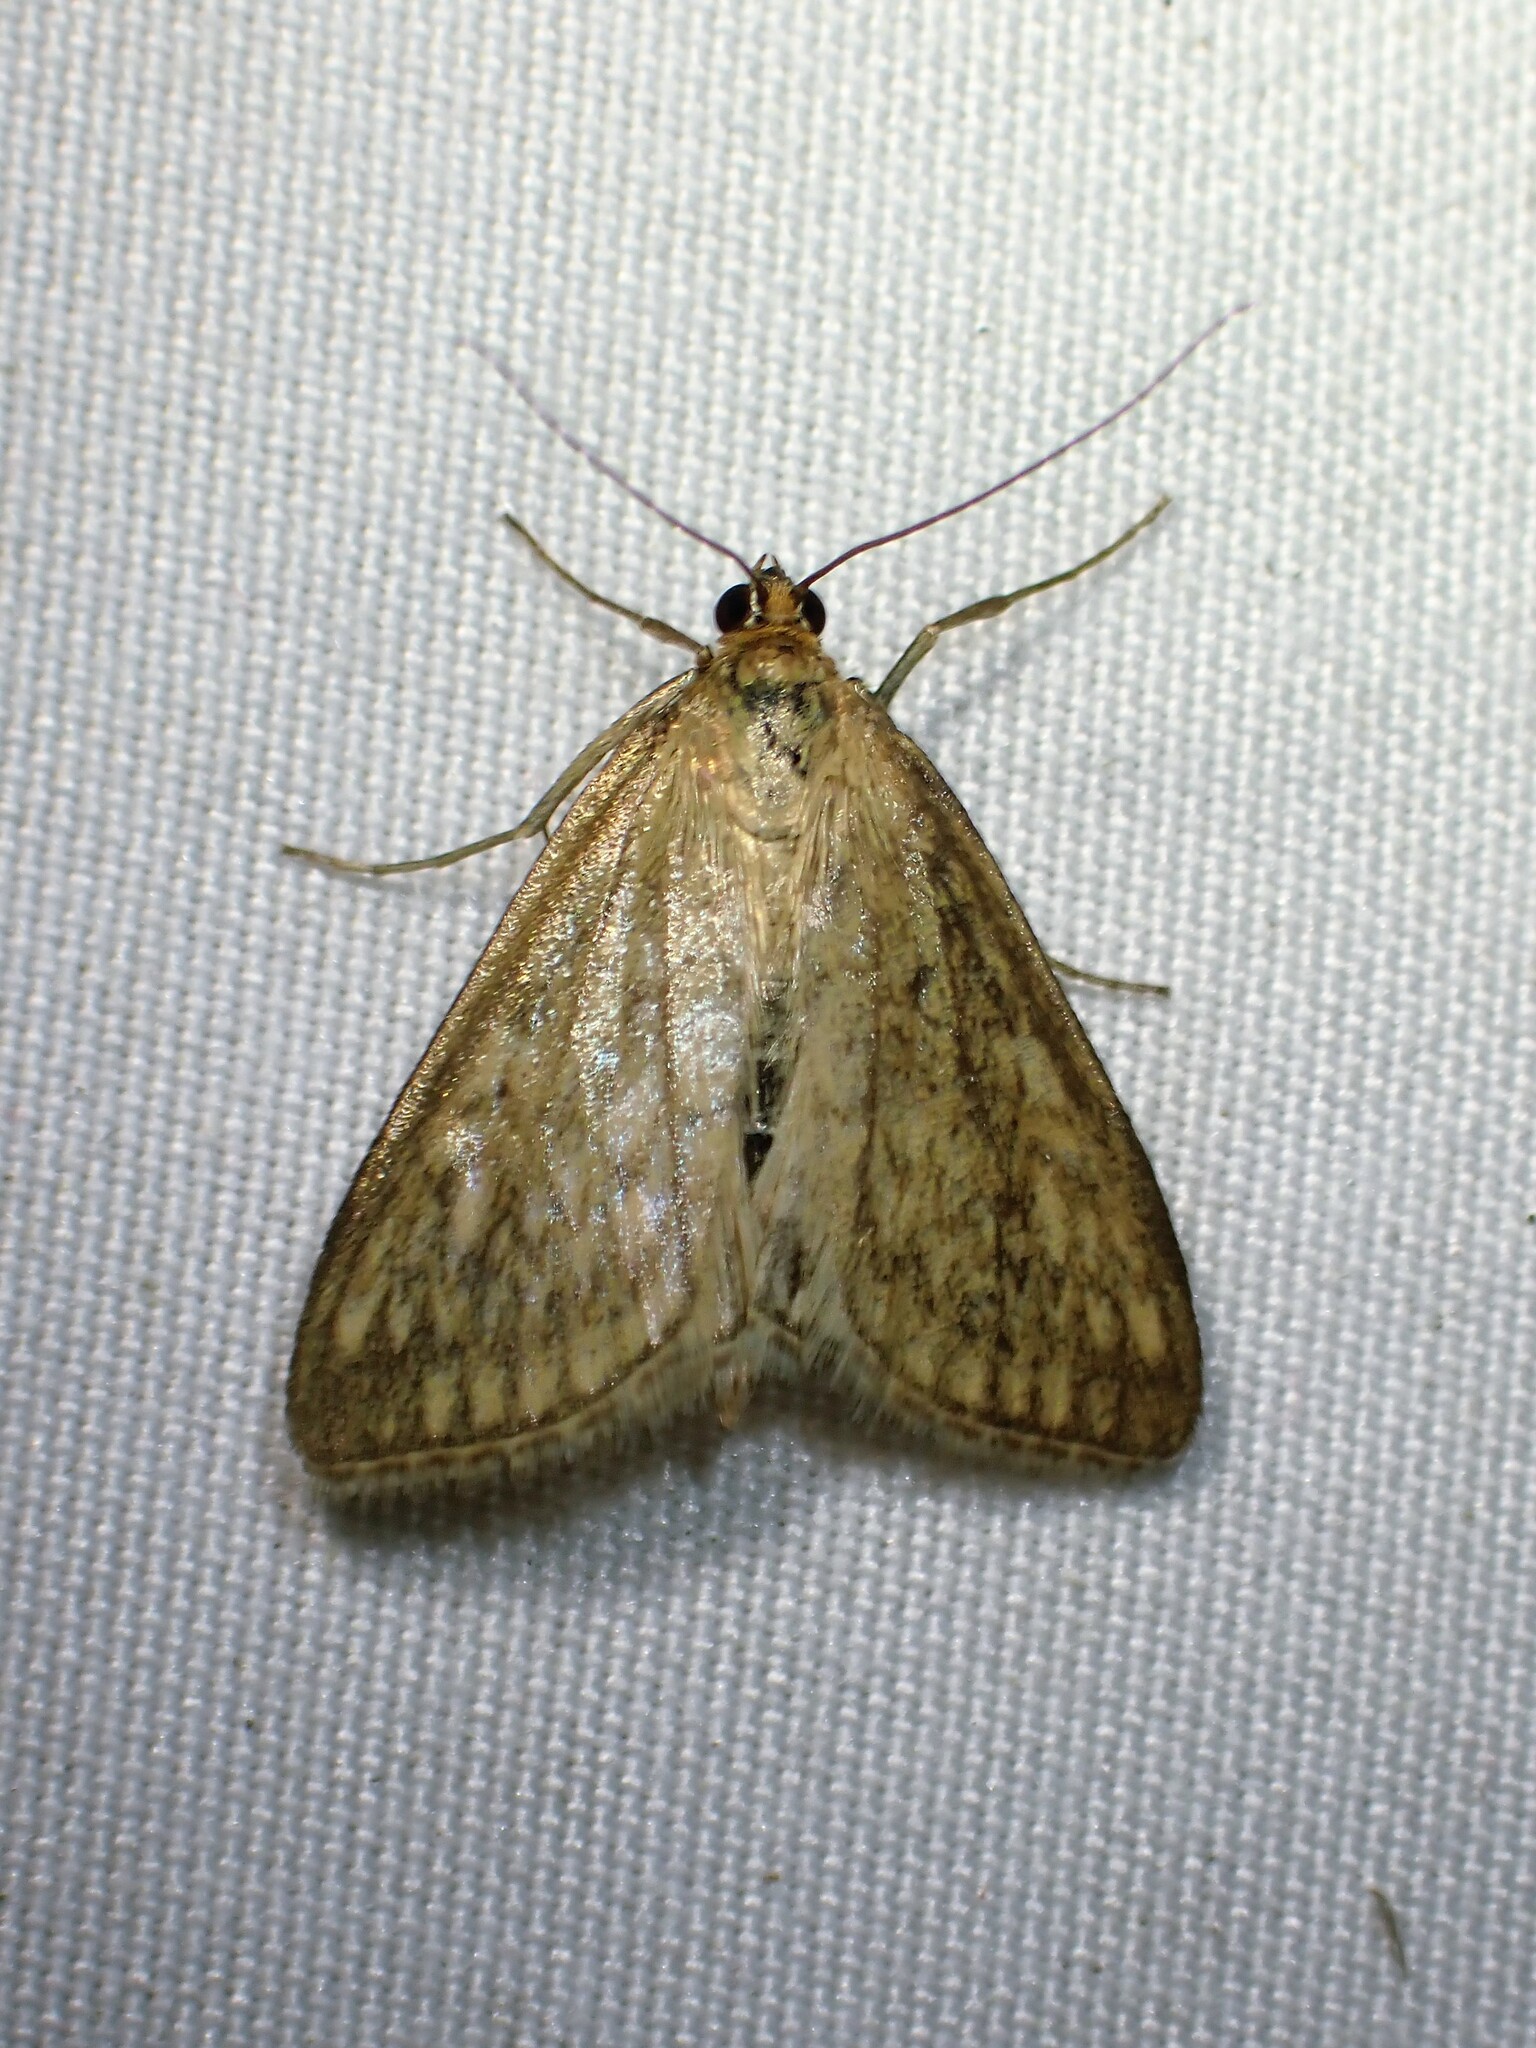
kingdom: Animalia
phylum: Arthropoda
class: Insecta
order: Lepidoptera
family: Crambidae
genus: Sitochroa
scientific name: Sitochroa chortalis
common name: Dimorphic sitochroa moth
